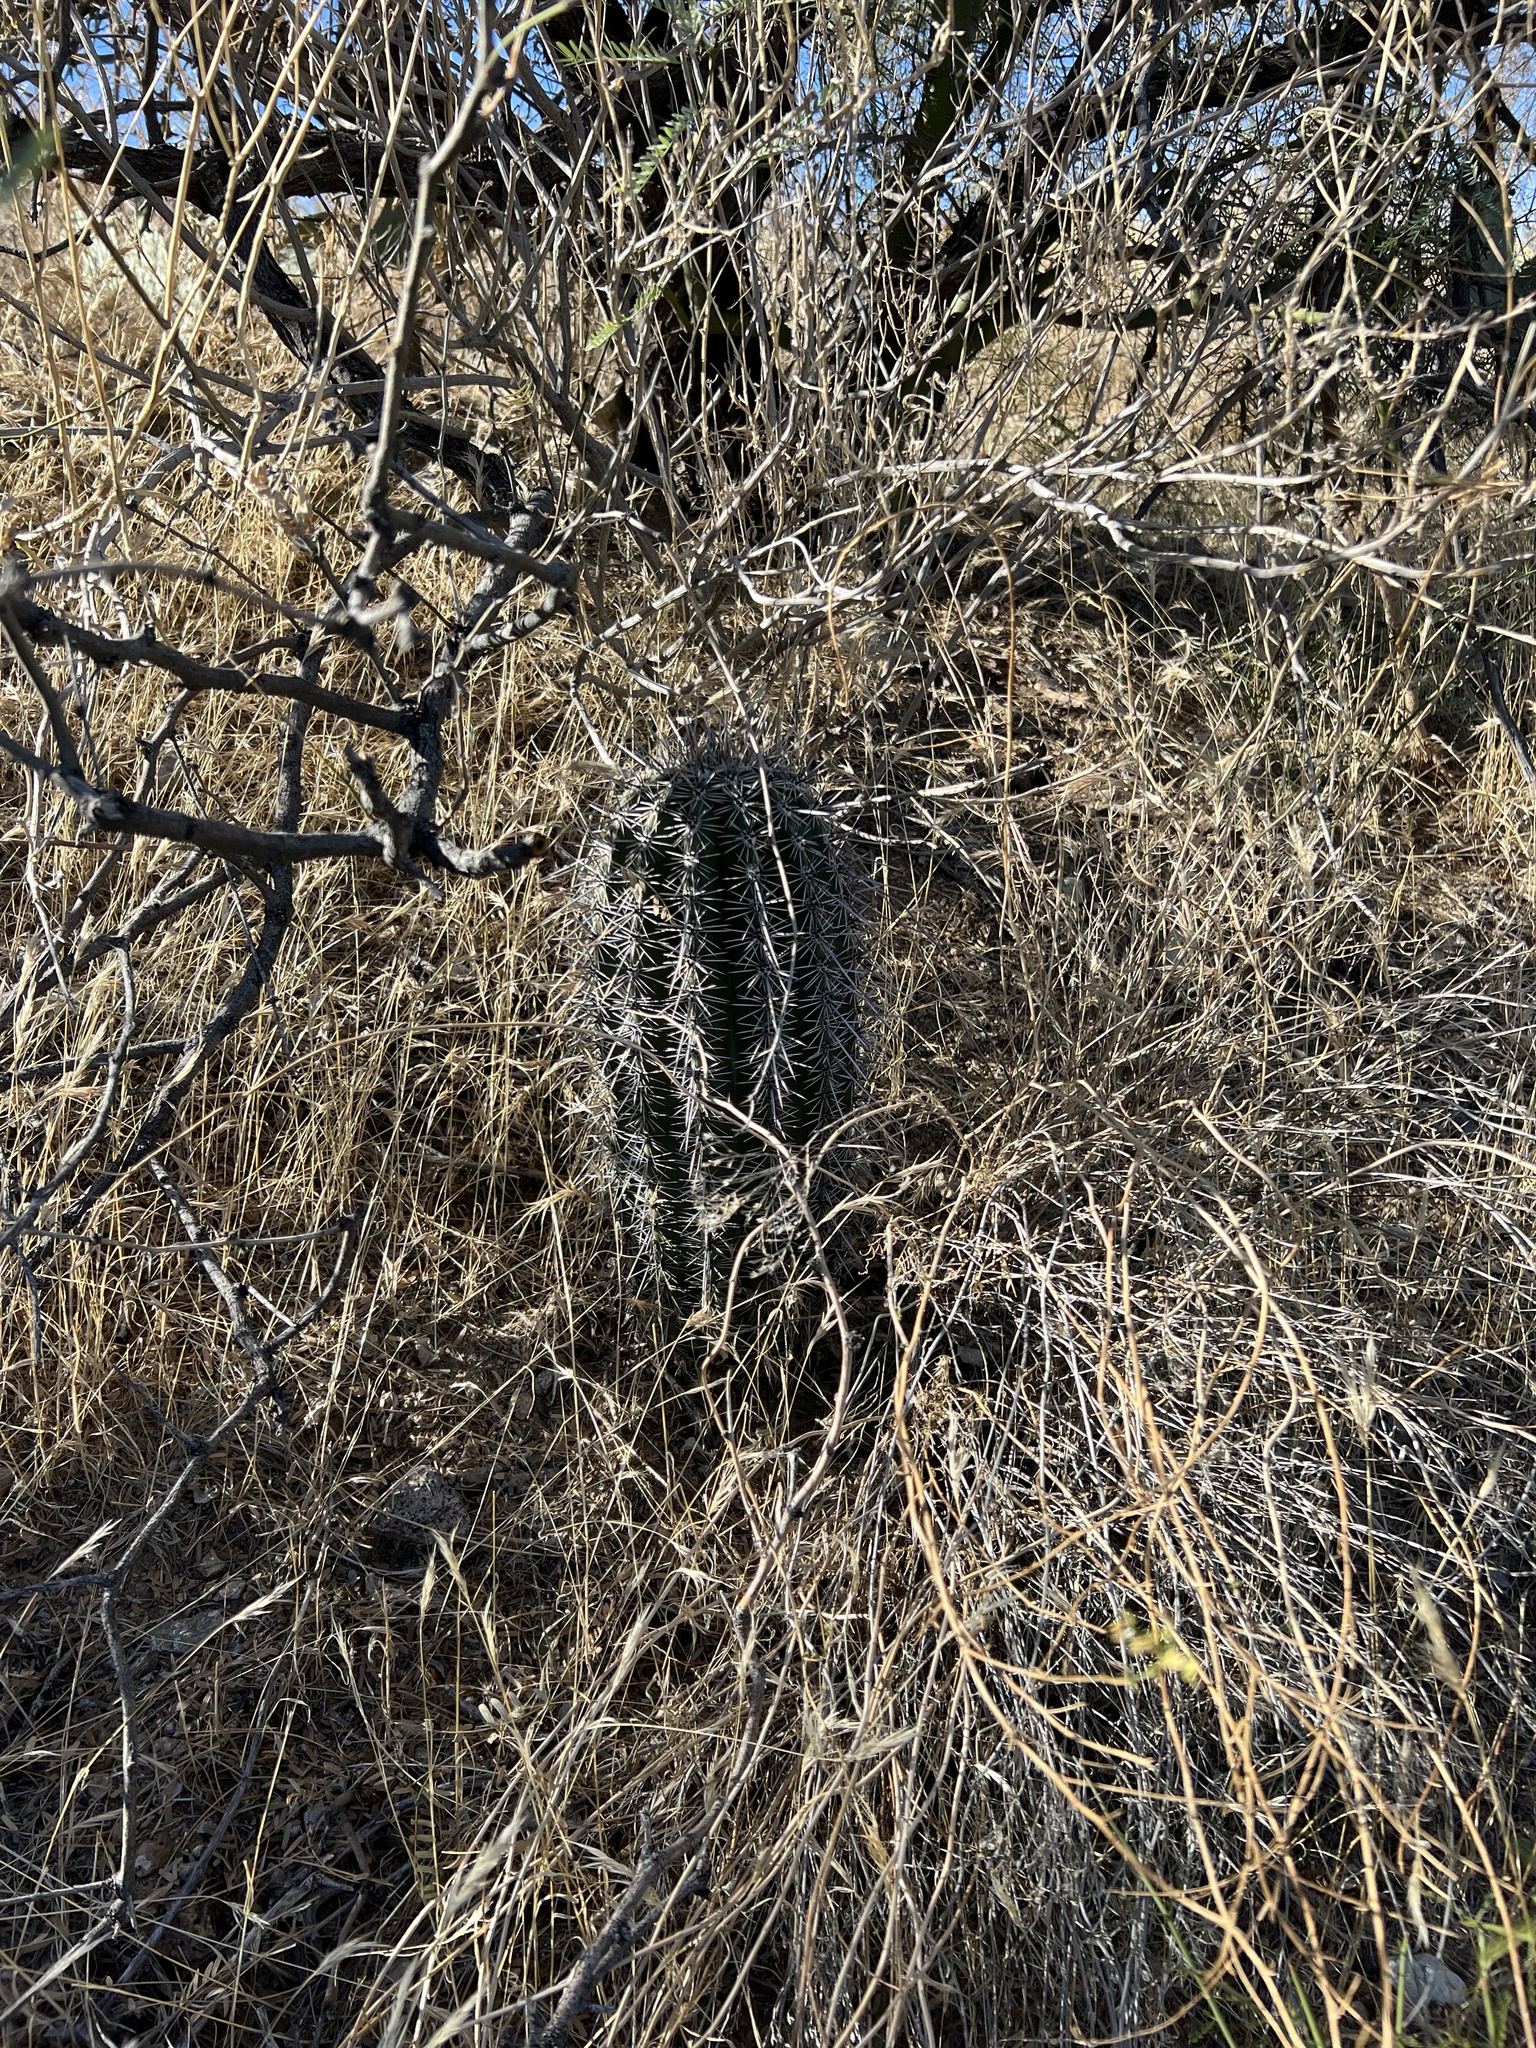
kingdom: Plantae
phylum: Tracheophyta
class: Magnoliopsida
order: Caryophyllales
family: Cactaceae
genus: Carnegiea
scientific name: Carnegiea gigantea
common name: Saguaro
